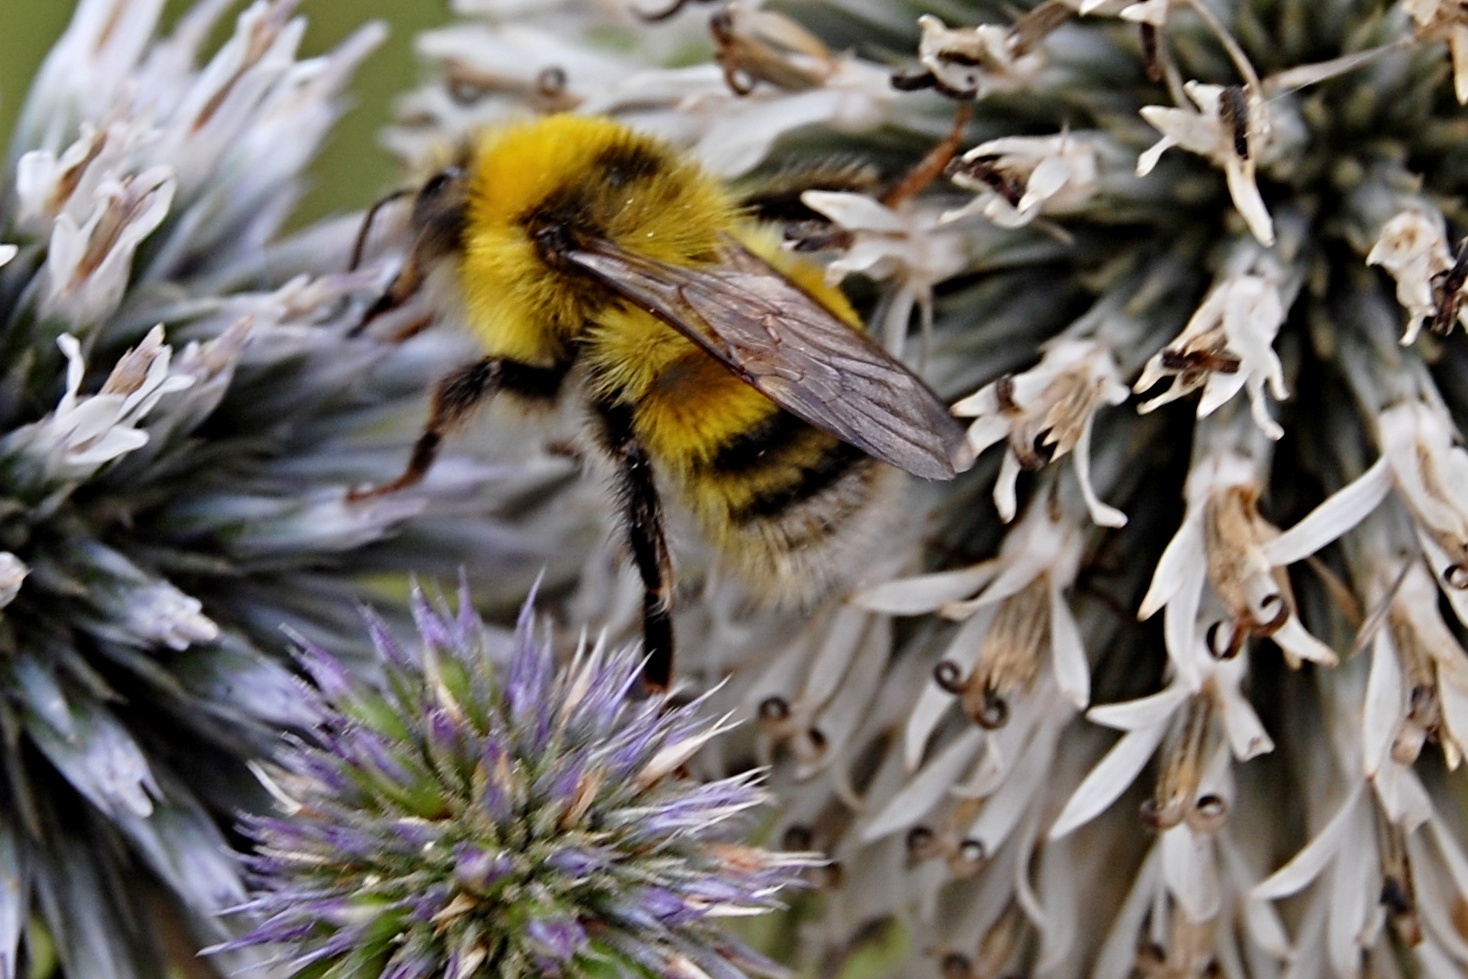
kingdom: Animalia
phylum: Arthropoda
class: Insecta
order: Hymenoptera
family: Apidae
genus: Bombus
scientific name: Bombus lucorum
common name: White-tailed bumblebee
